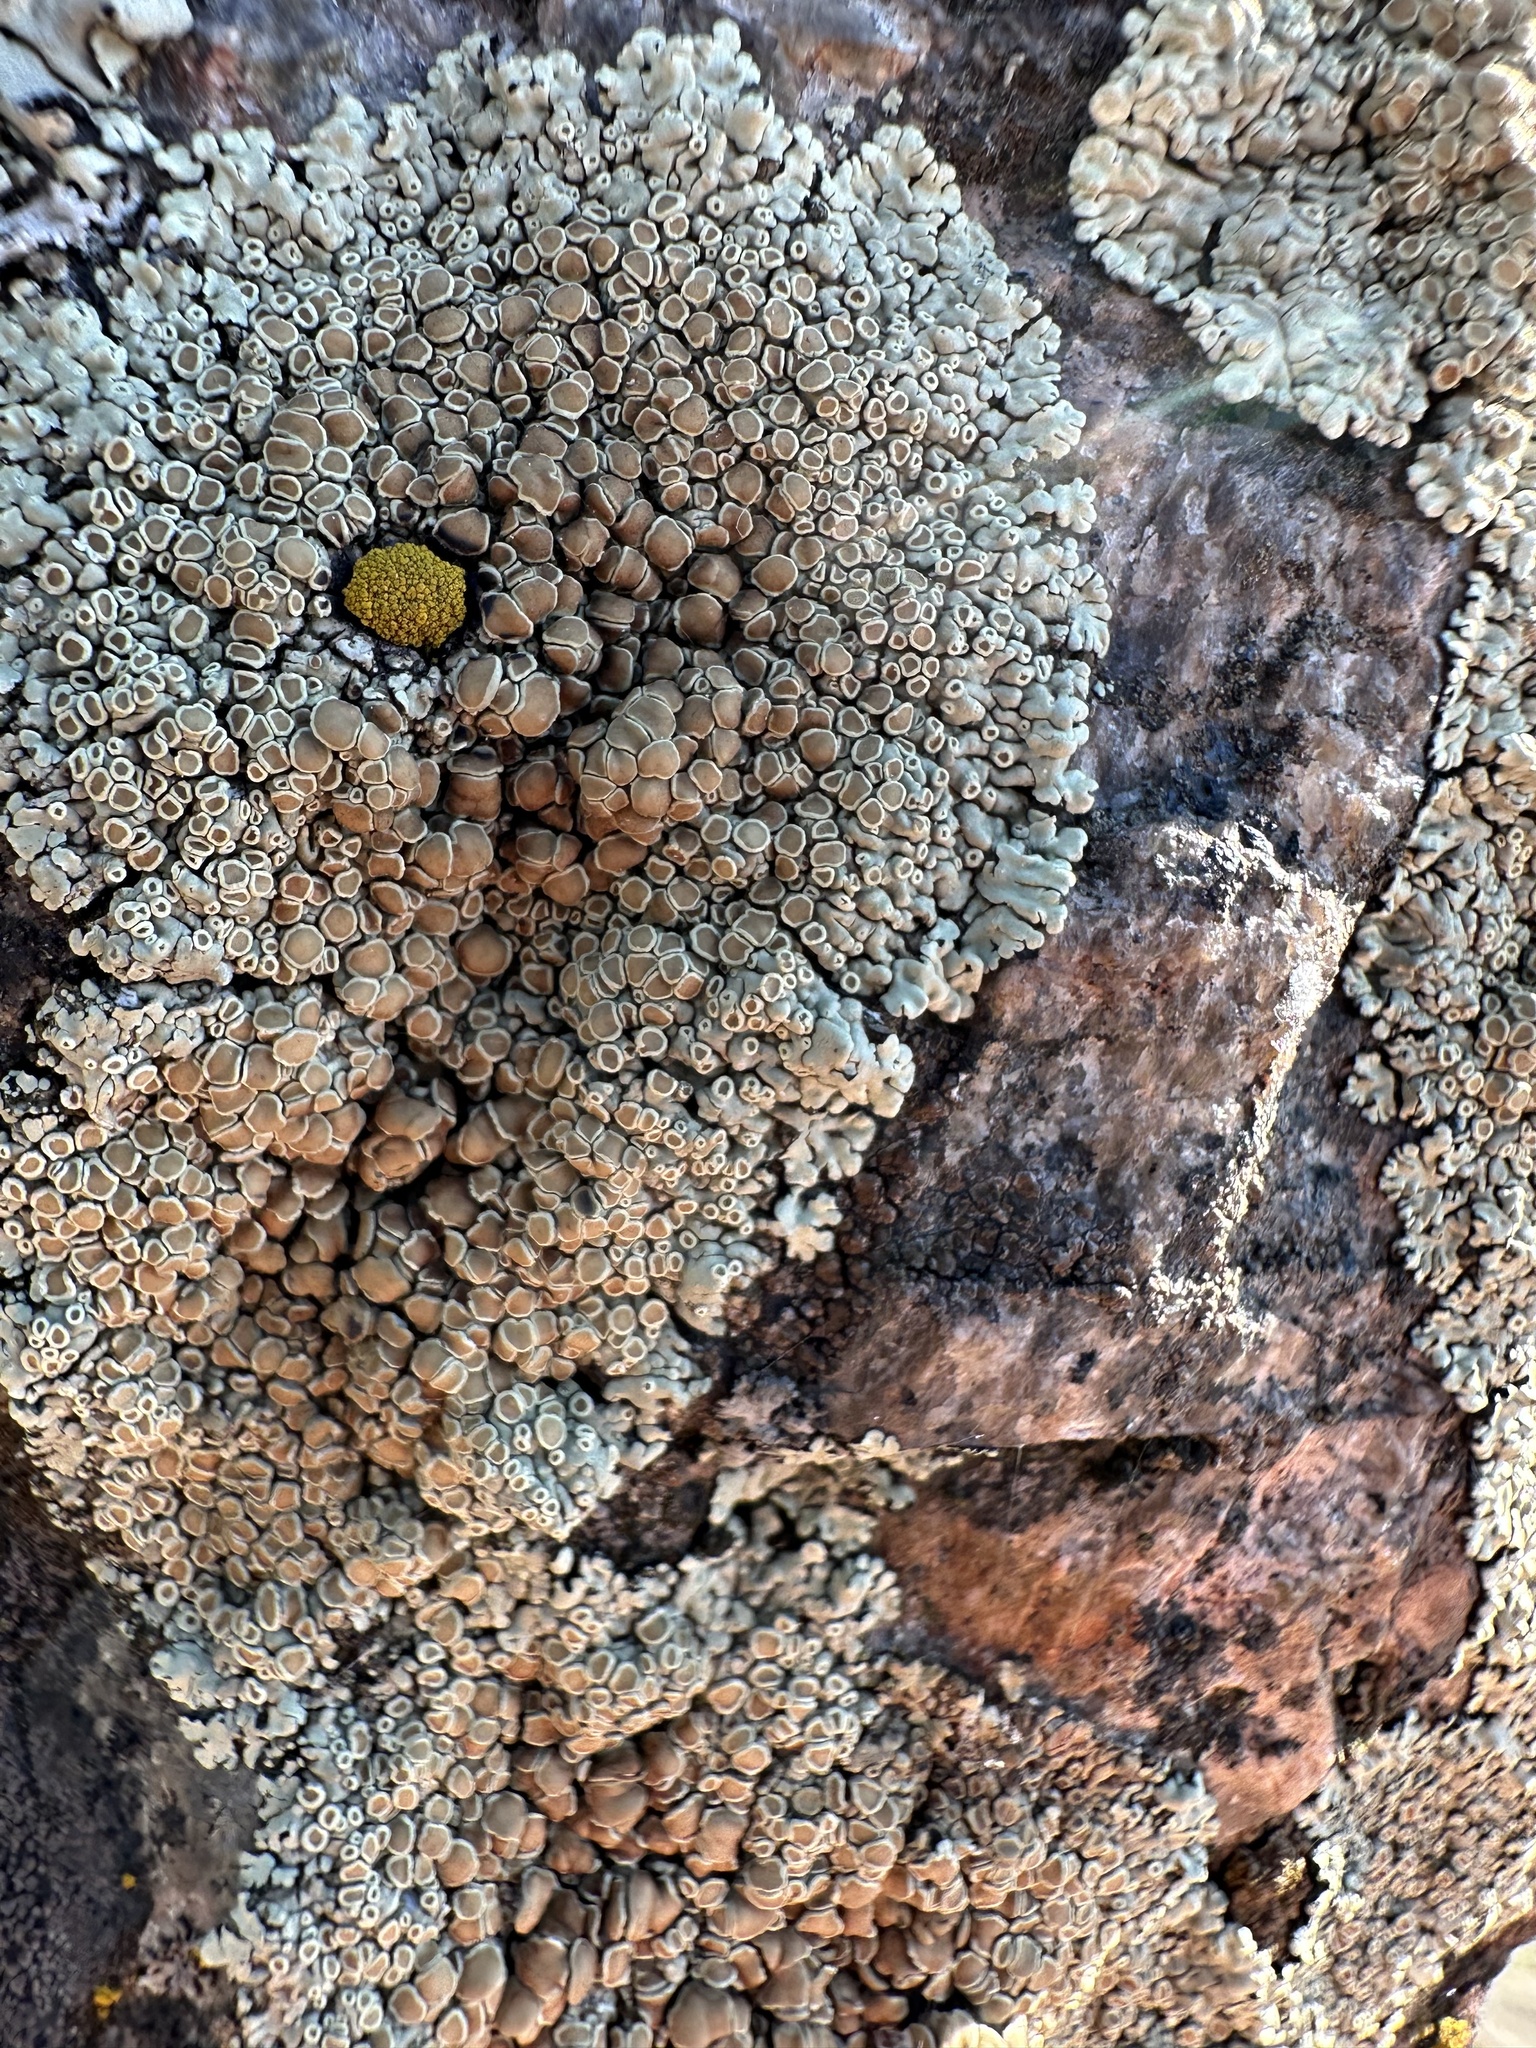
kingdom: Fungi
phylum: Ascomycota
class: Lecanoromycetes
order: Lecanorales
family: Lecanoraceae
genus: Protoparmeliopsis
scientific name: Protoparmeliopsis muralis
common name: Stonewall rim lichen
